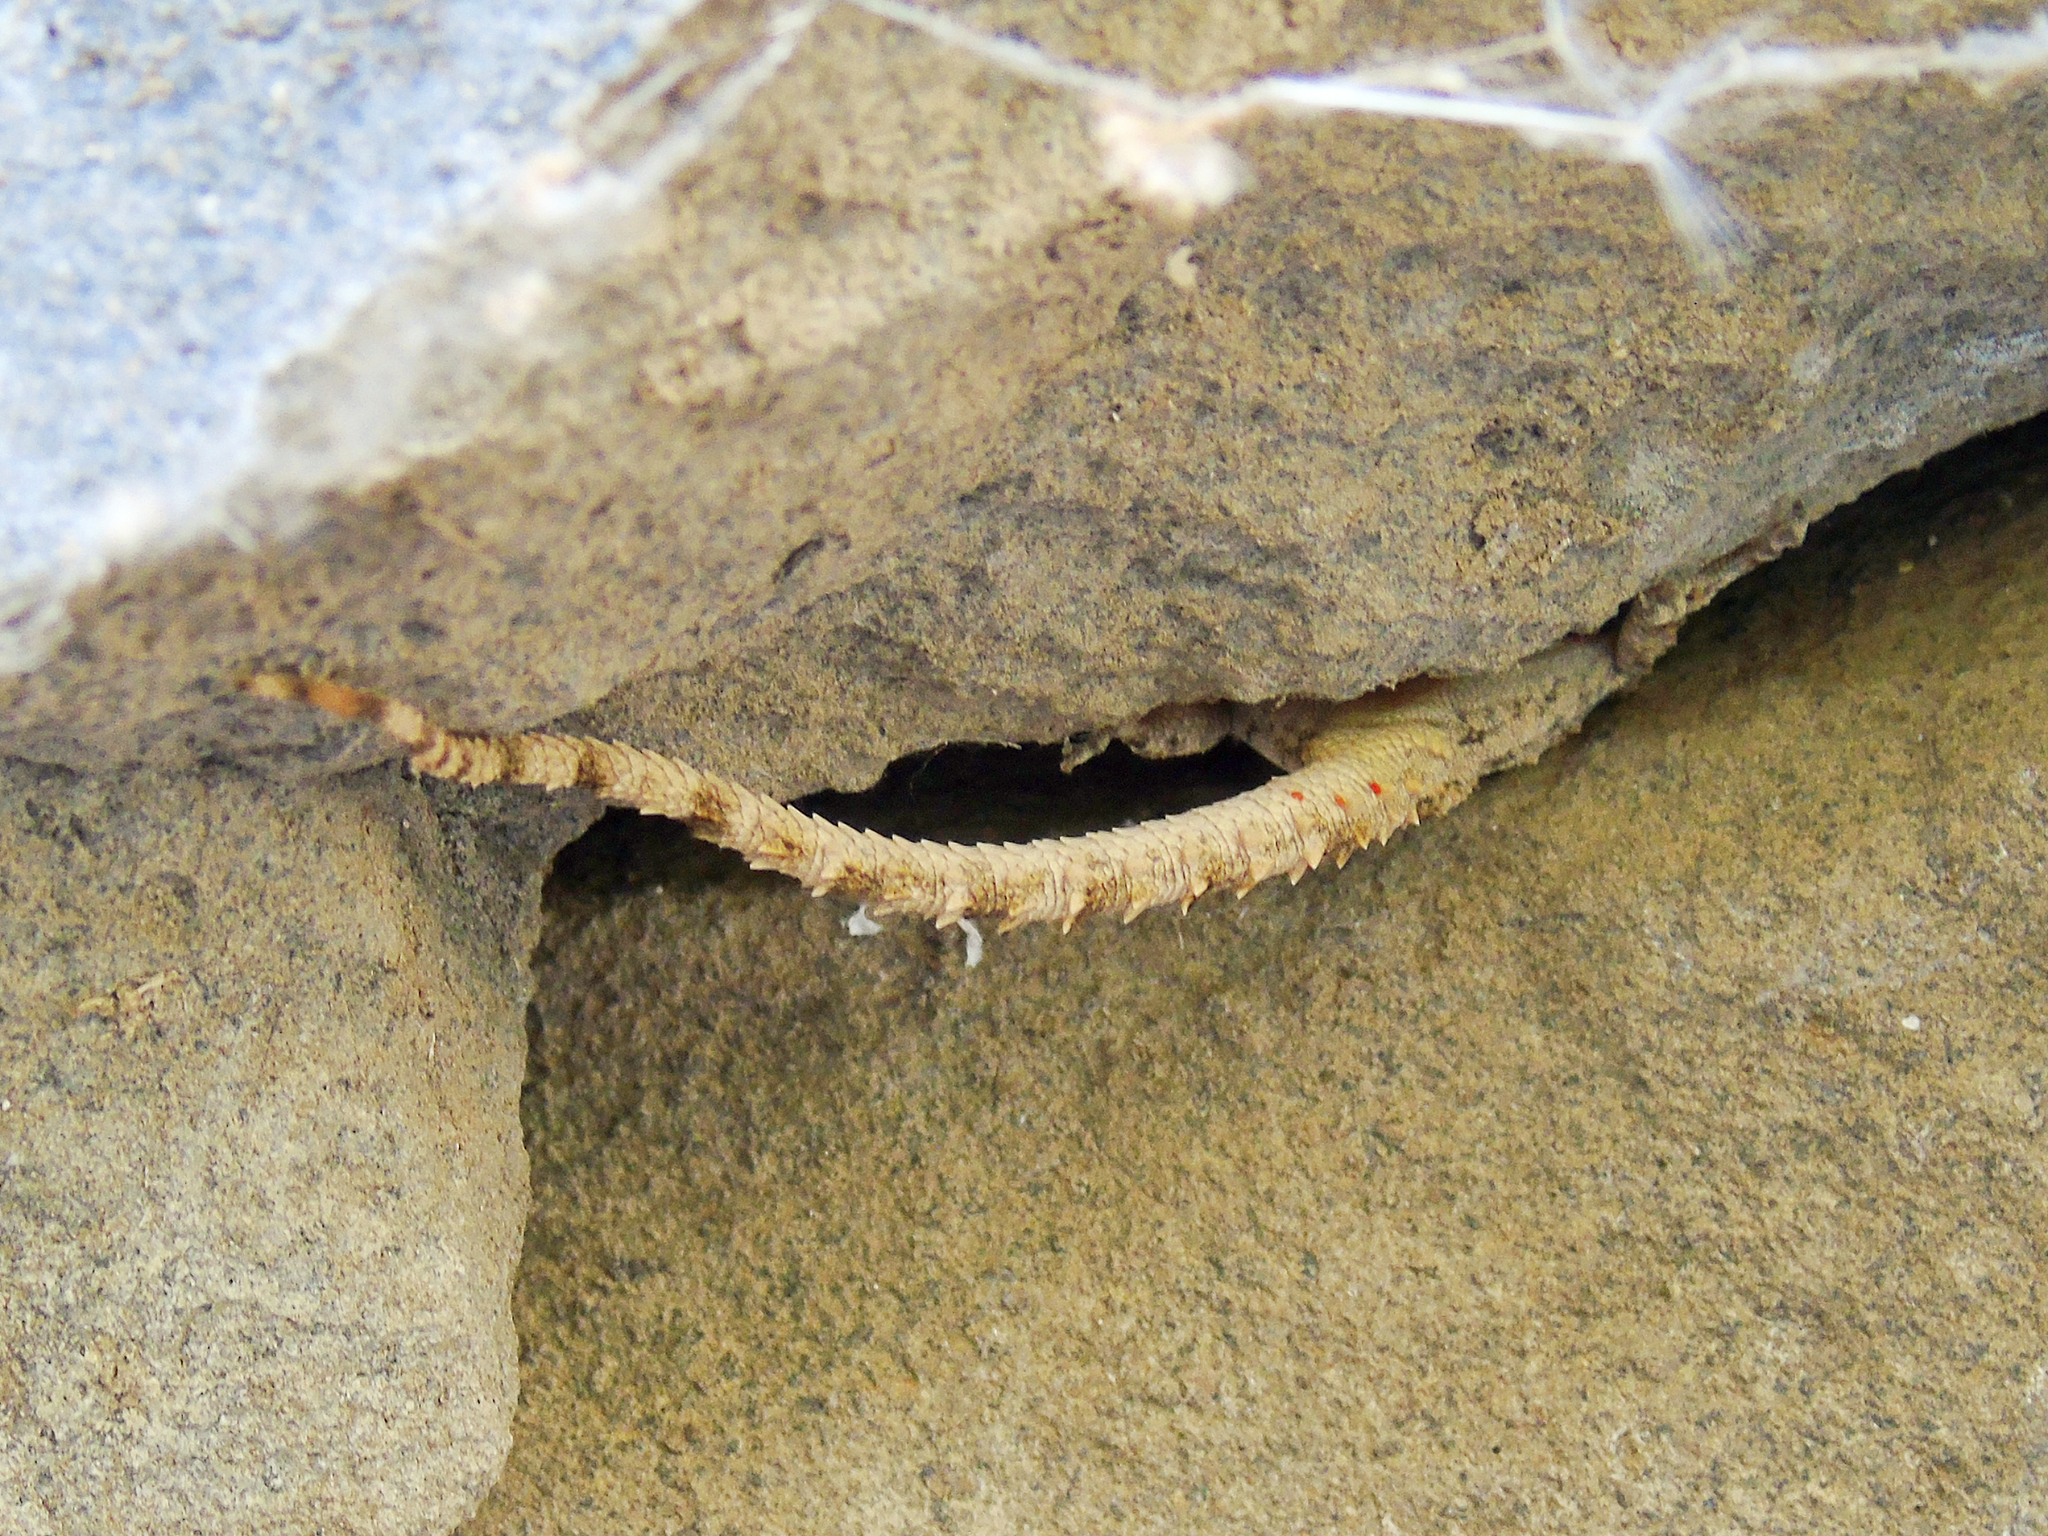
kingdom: Animalia
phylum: Chordata
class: Squamata
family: Gekkonidae
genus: Mediodactylus
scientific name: Mediodactylus heterocercus
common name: Asia minor thin-toed gecko
